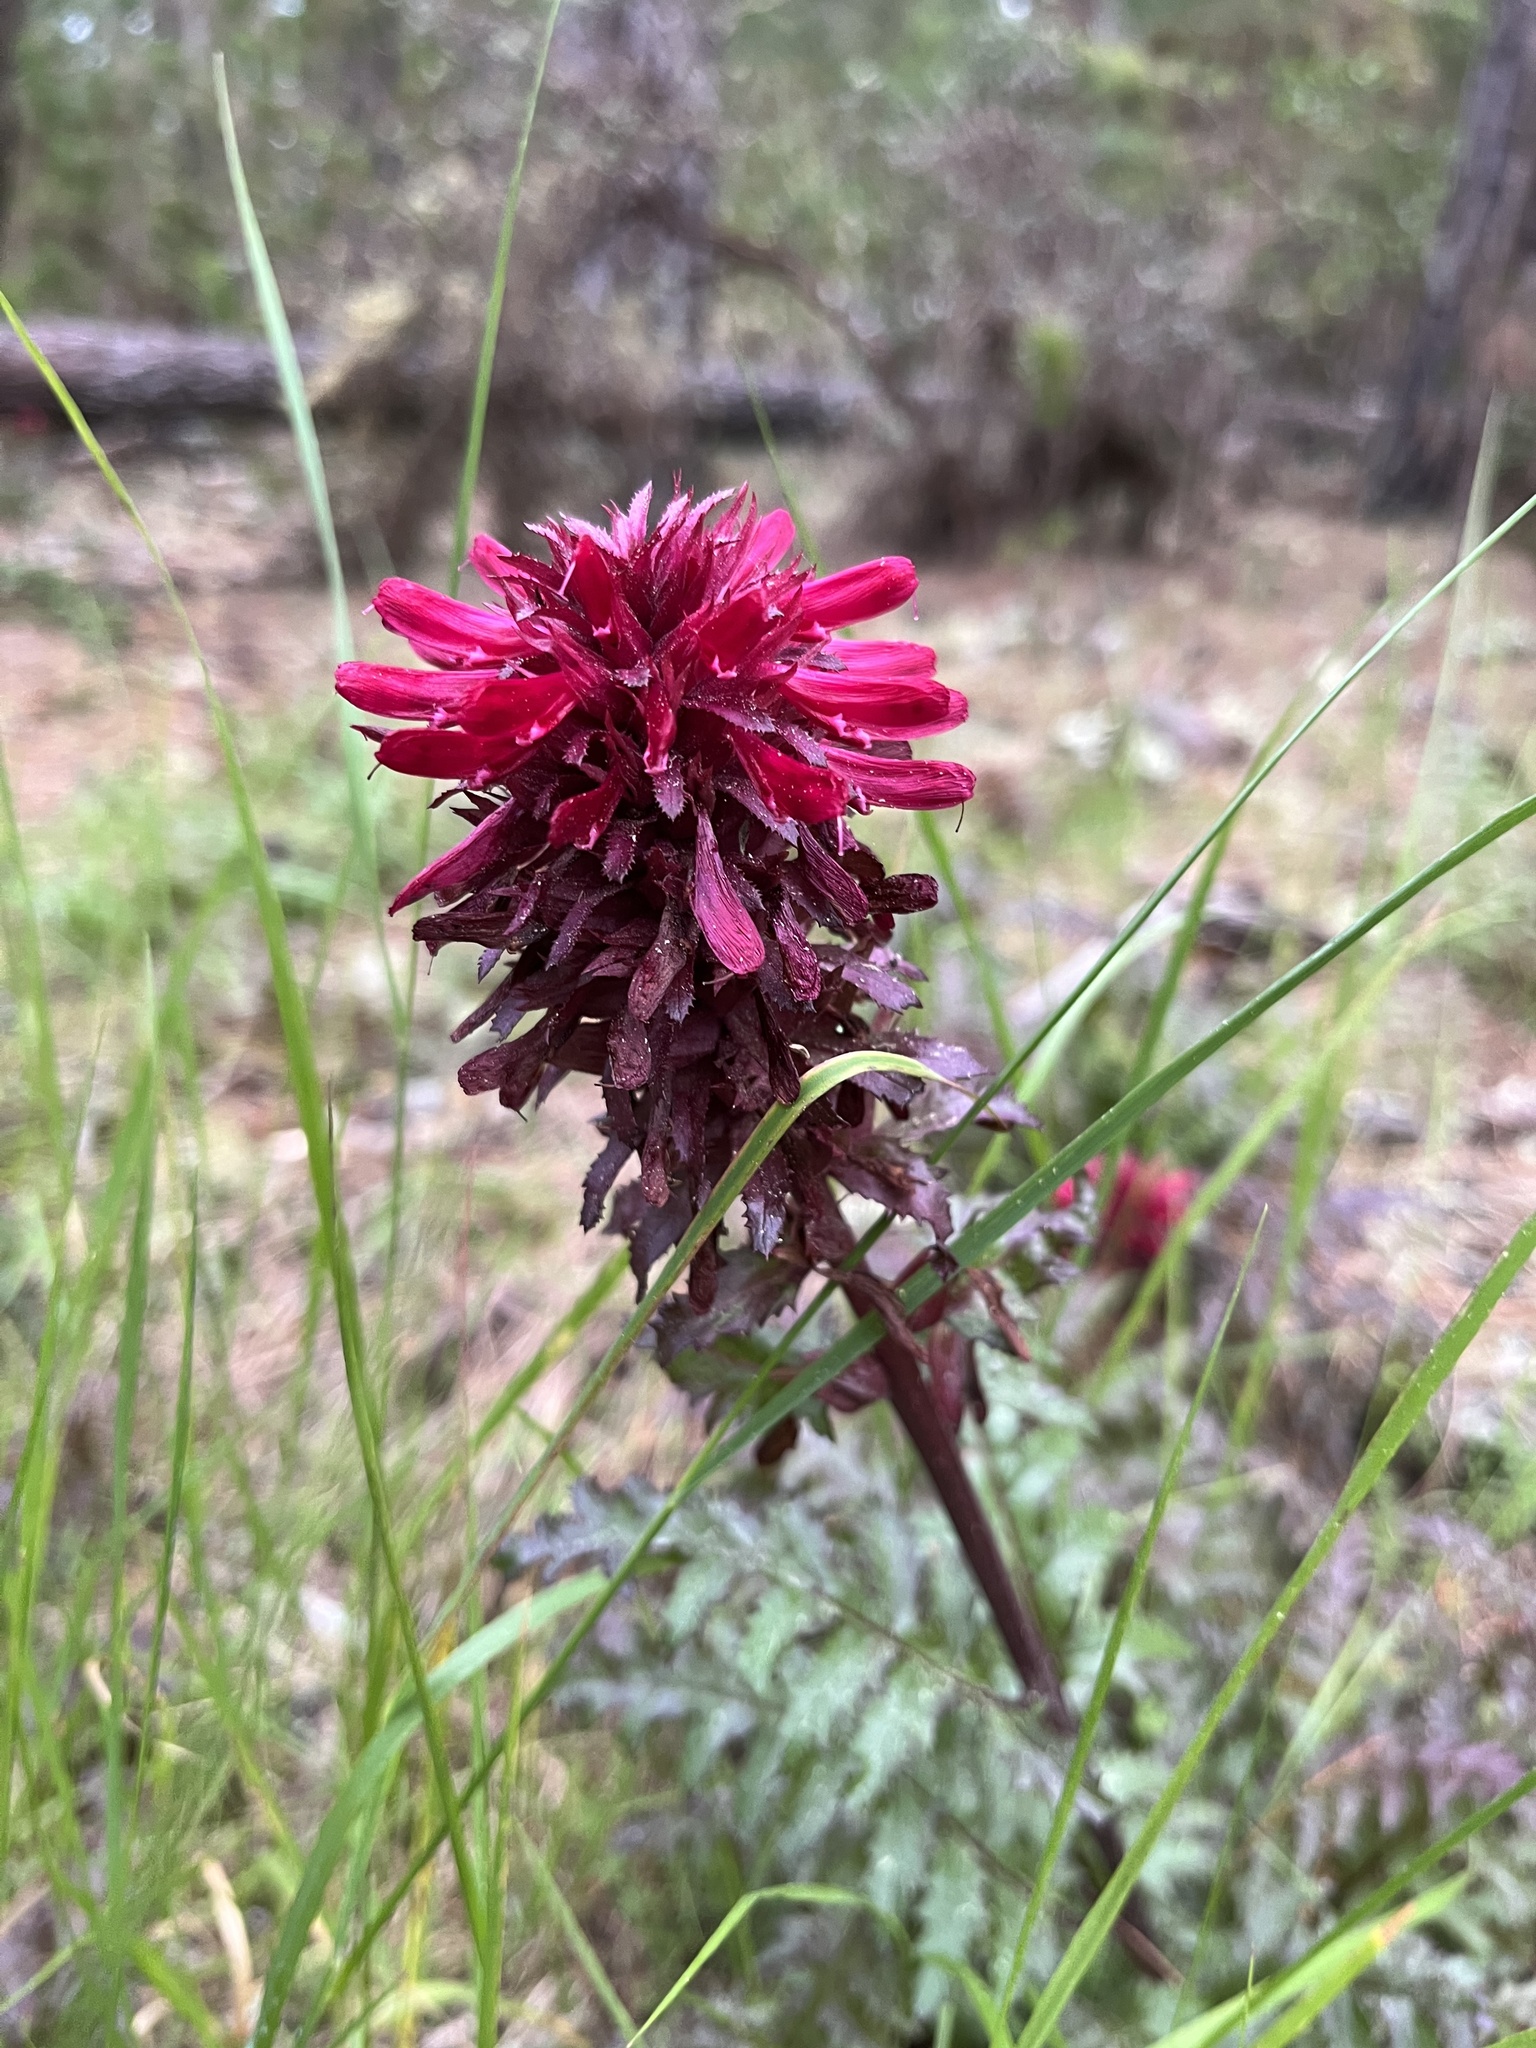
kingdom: Plantae
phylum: Tracheophyta
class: Magnoliopsida
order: Lamiales
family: Orobanchaceae
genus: Pedicularis
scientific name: Pedicularis densiflora
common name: Indian warrior
